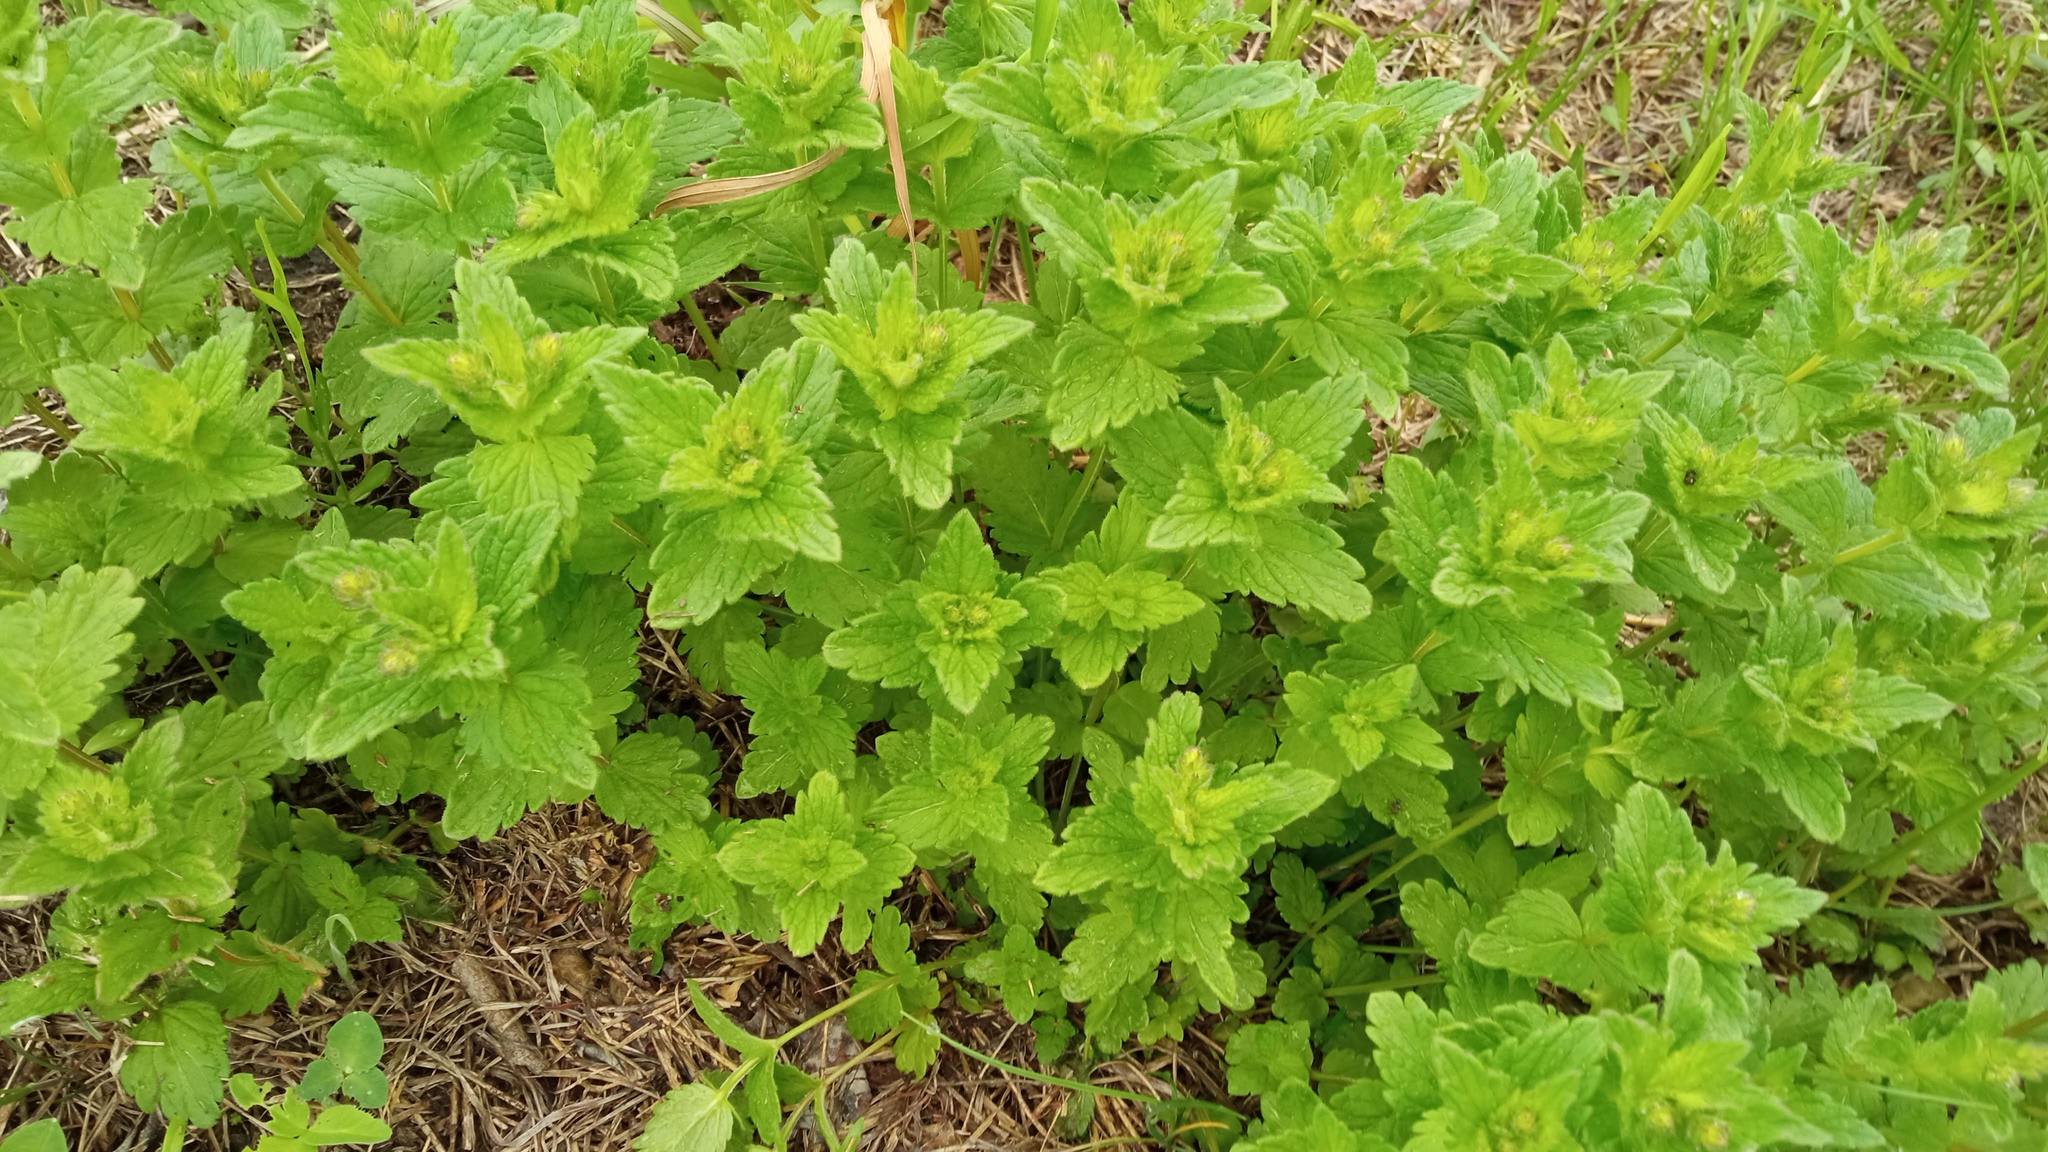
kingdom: Plantae
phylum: Tracheophyta
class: Magnoliopsida
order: Lamiales
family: Plantaginaceae
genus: Veronica
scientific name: Veronica chamaedrys
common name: Germander speedwell
